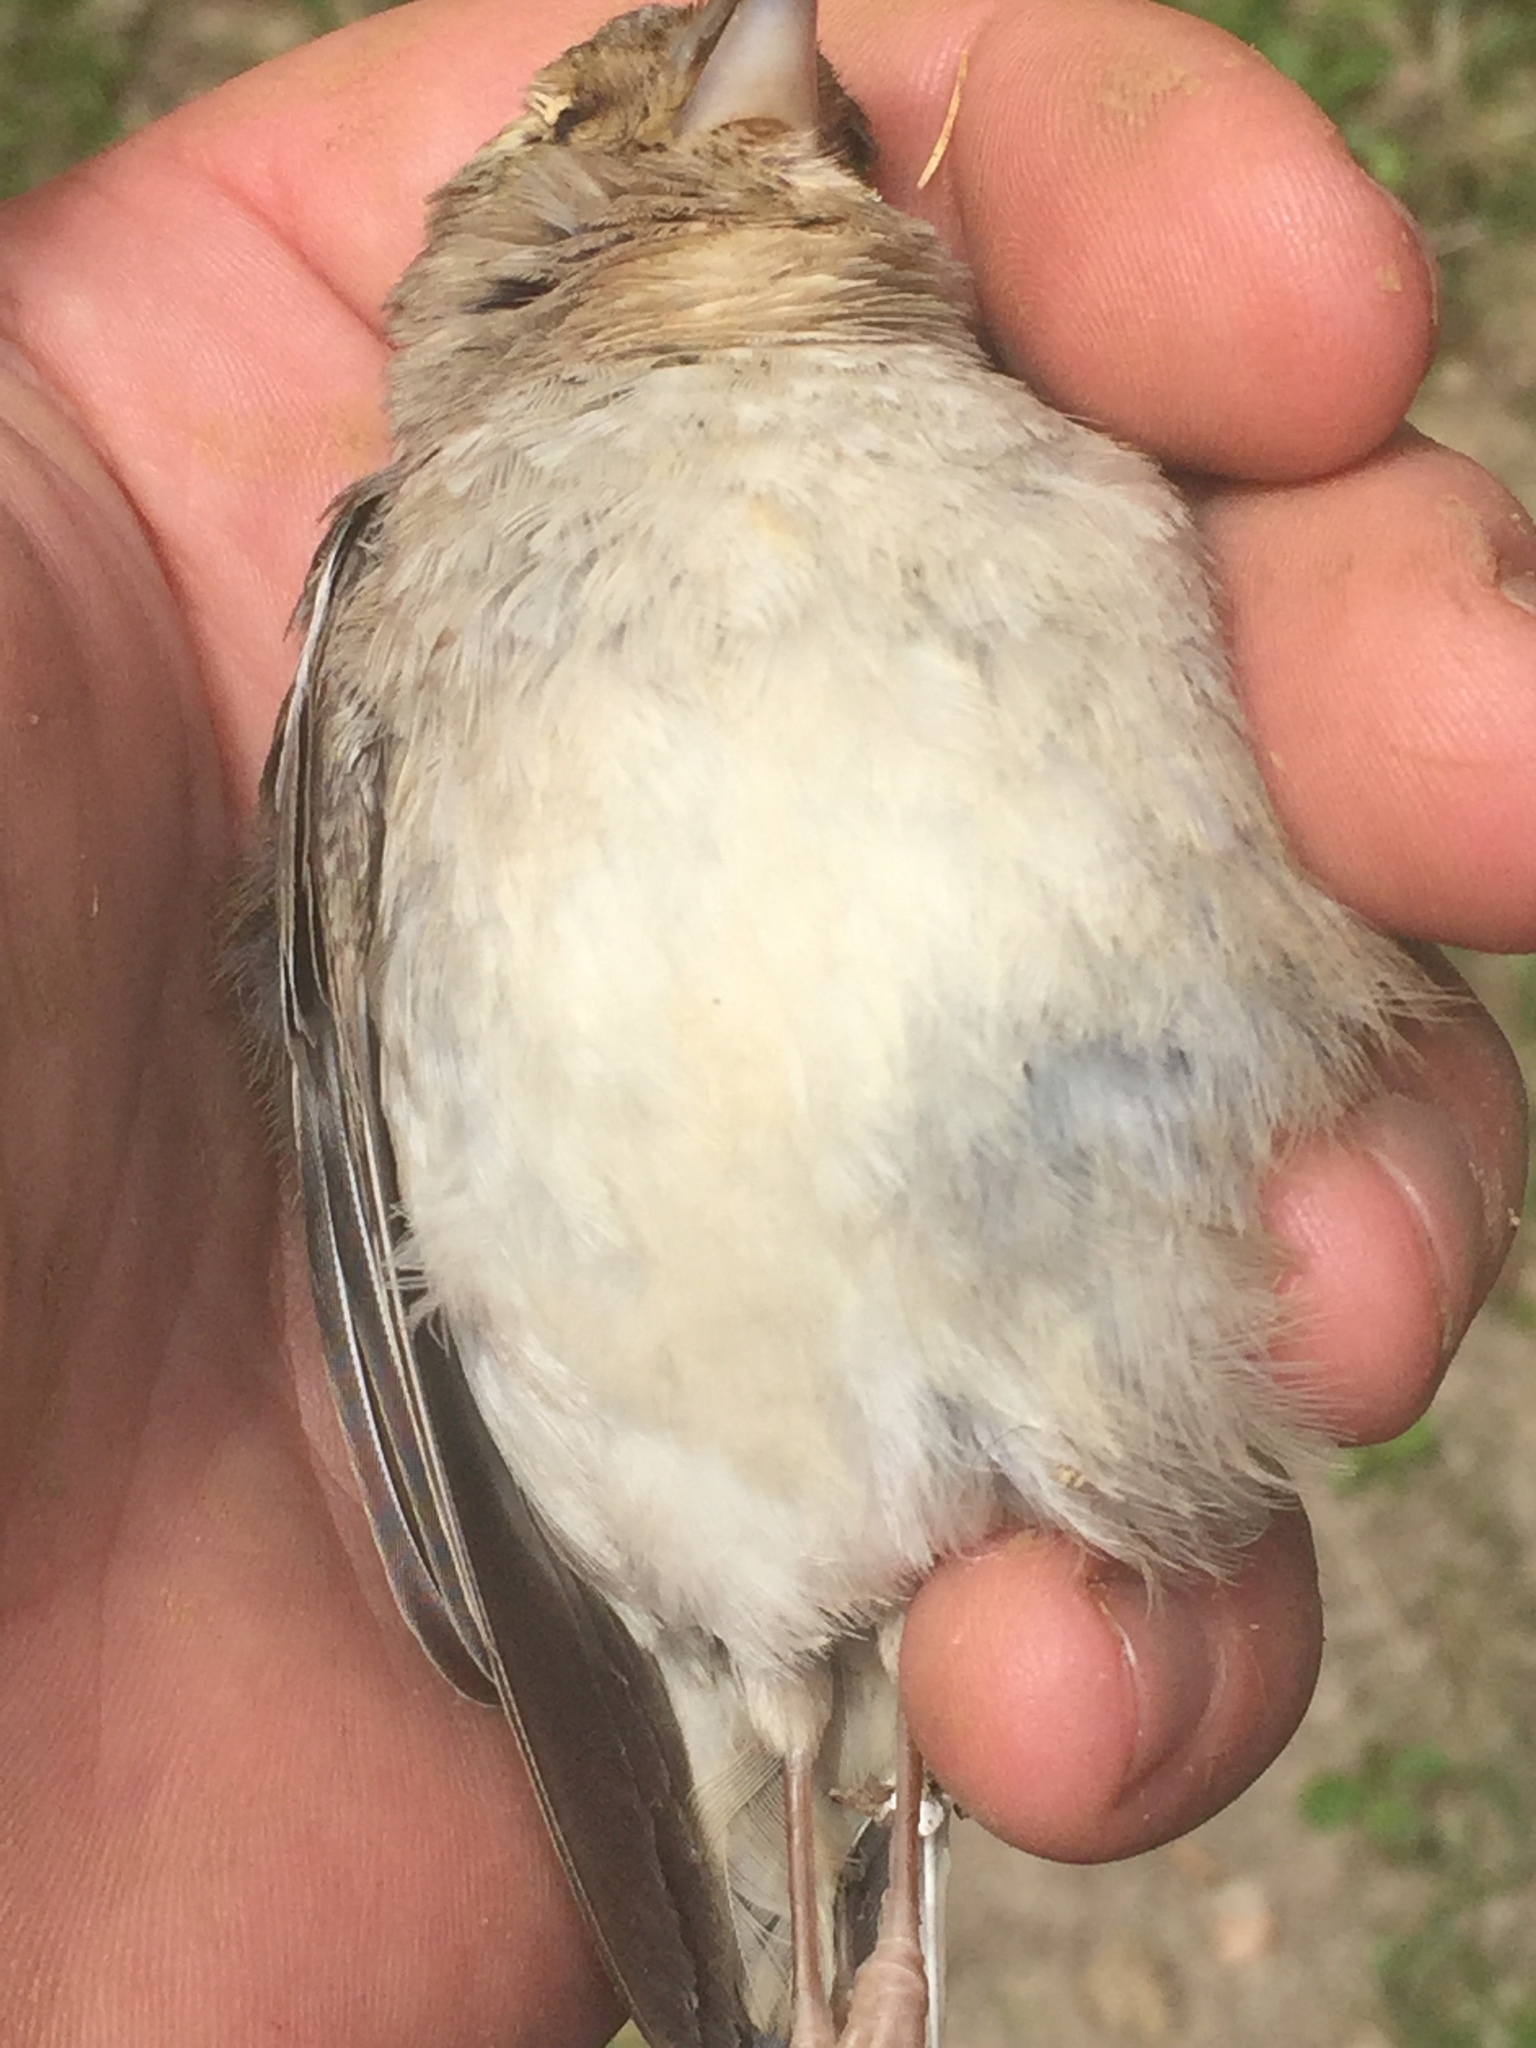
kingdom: Animalia
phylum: Chordata
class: Aves
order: Passeriformes
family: Fringillidae
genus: Fringilla
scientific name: Fringilla coelebs
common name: Common chaffinch
